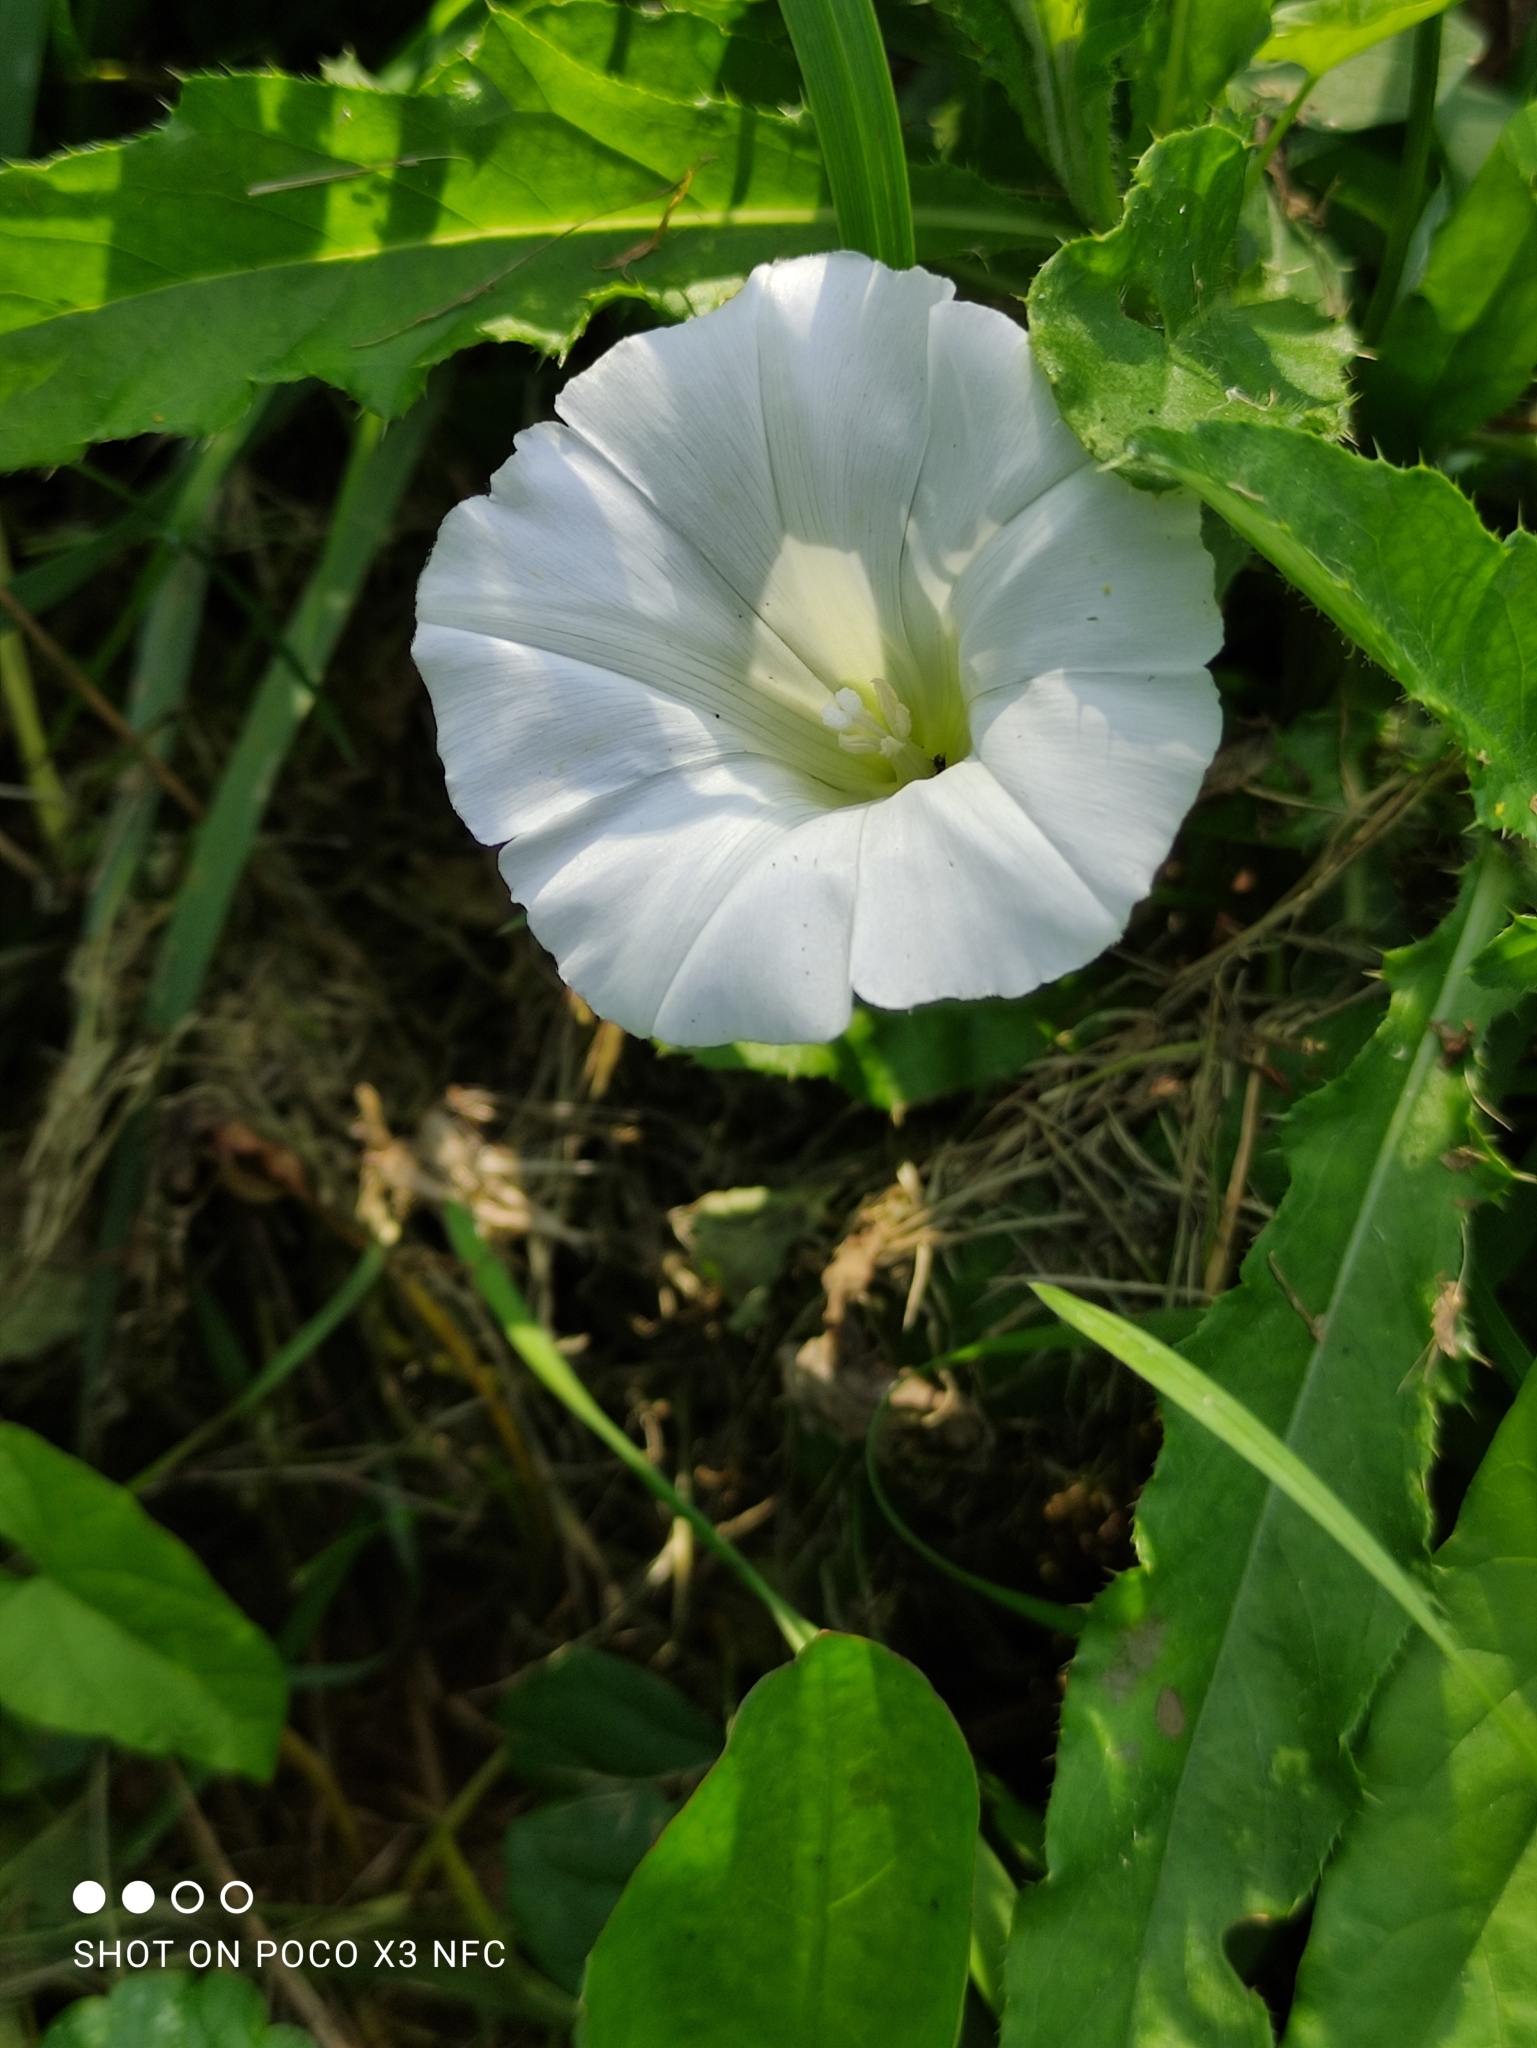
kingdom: Plantae
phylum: Tracheophyta
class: Magnoliopsida
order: Solanales
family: Convolvulaceae
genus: Calystegia
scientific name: Calystegia sepium
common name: Hedge bindweed
